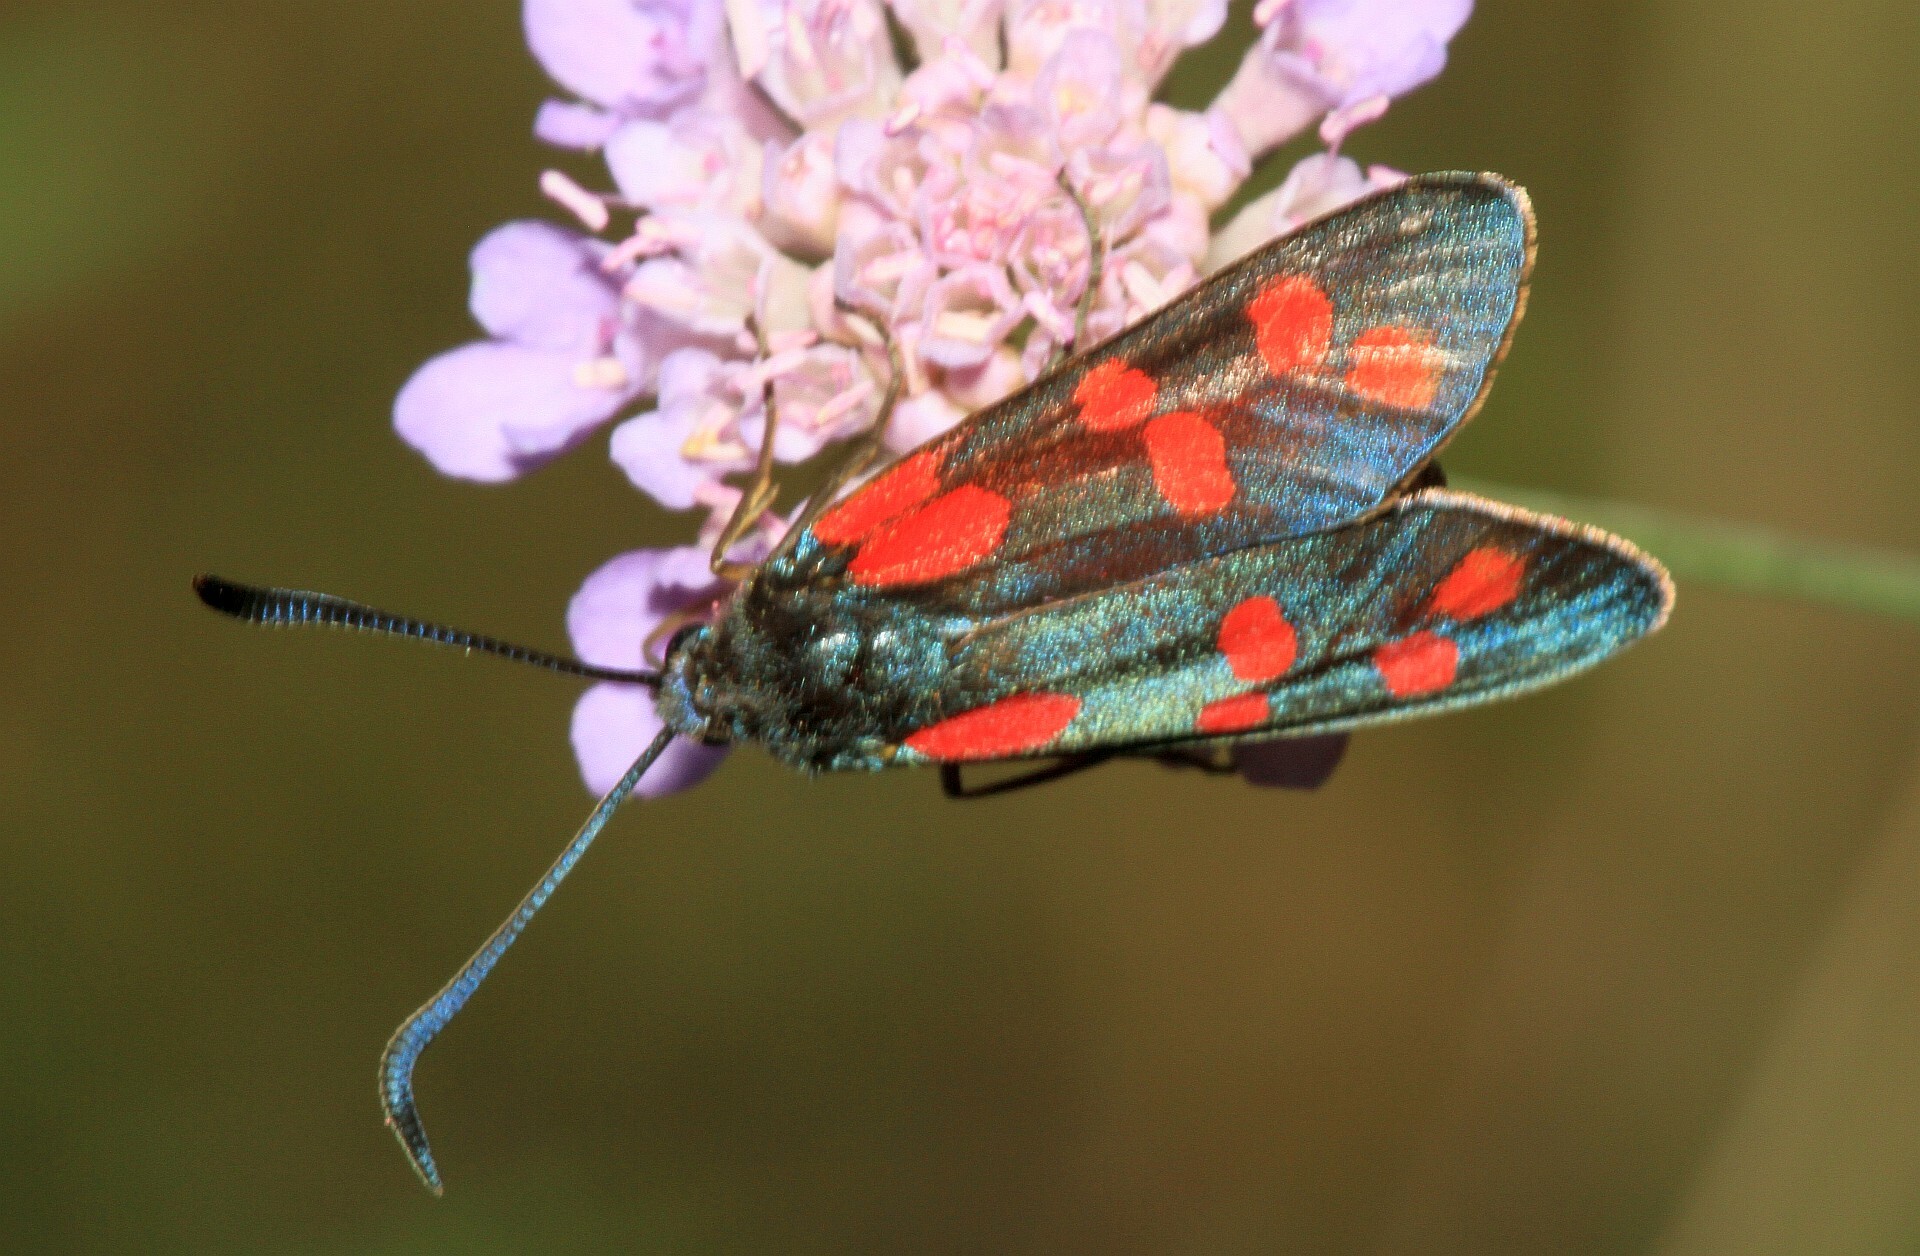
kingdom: Animalia
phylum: Arthropoda
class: Insecta
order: Lepidoptera
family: Zygaenidae
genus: Zygaena
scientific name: Zygaena filipendulae
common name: Six-spot burnet
